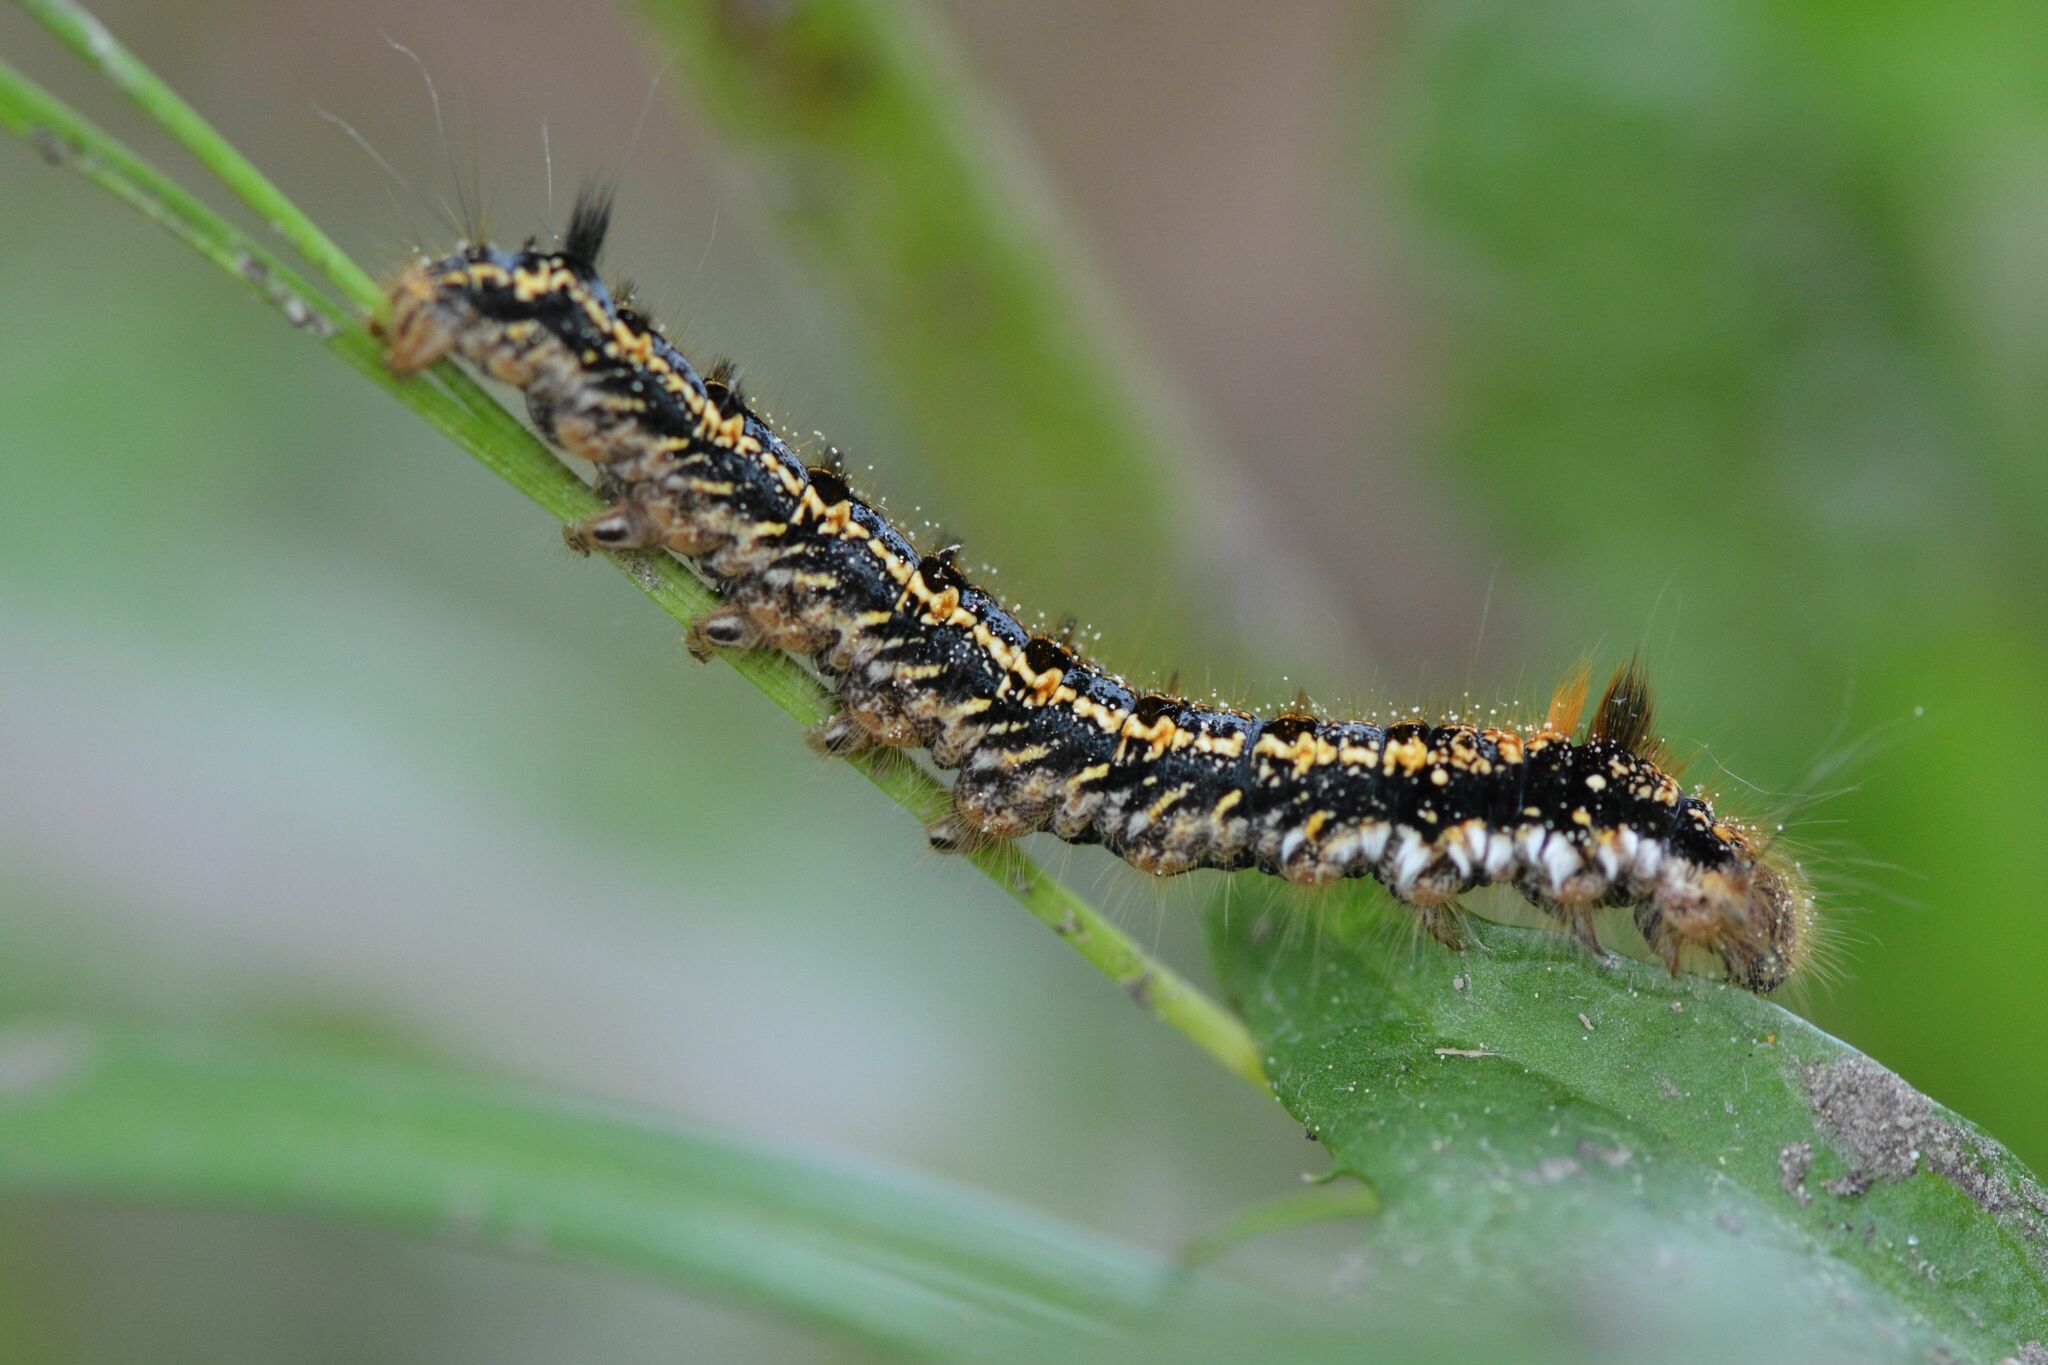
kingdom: Animalia
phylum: Arthropoda
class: Insecta
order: Lepidoptera
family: Lasiocampidae
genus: Euthrix
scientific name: Euthrix potatoria
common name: Drinker
